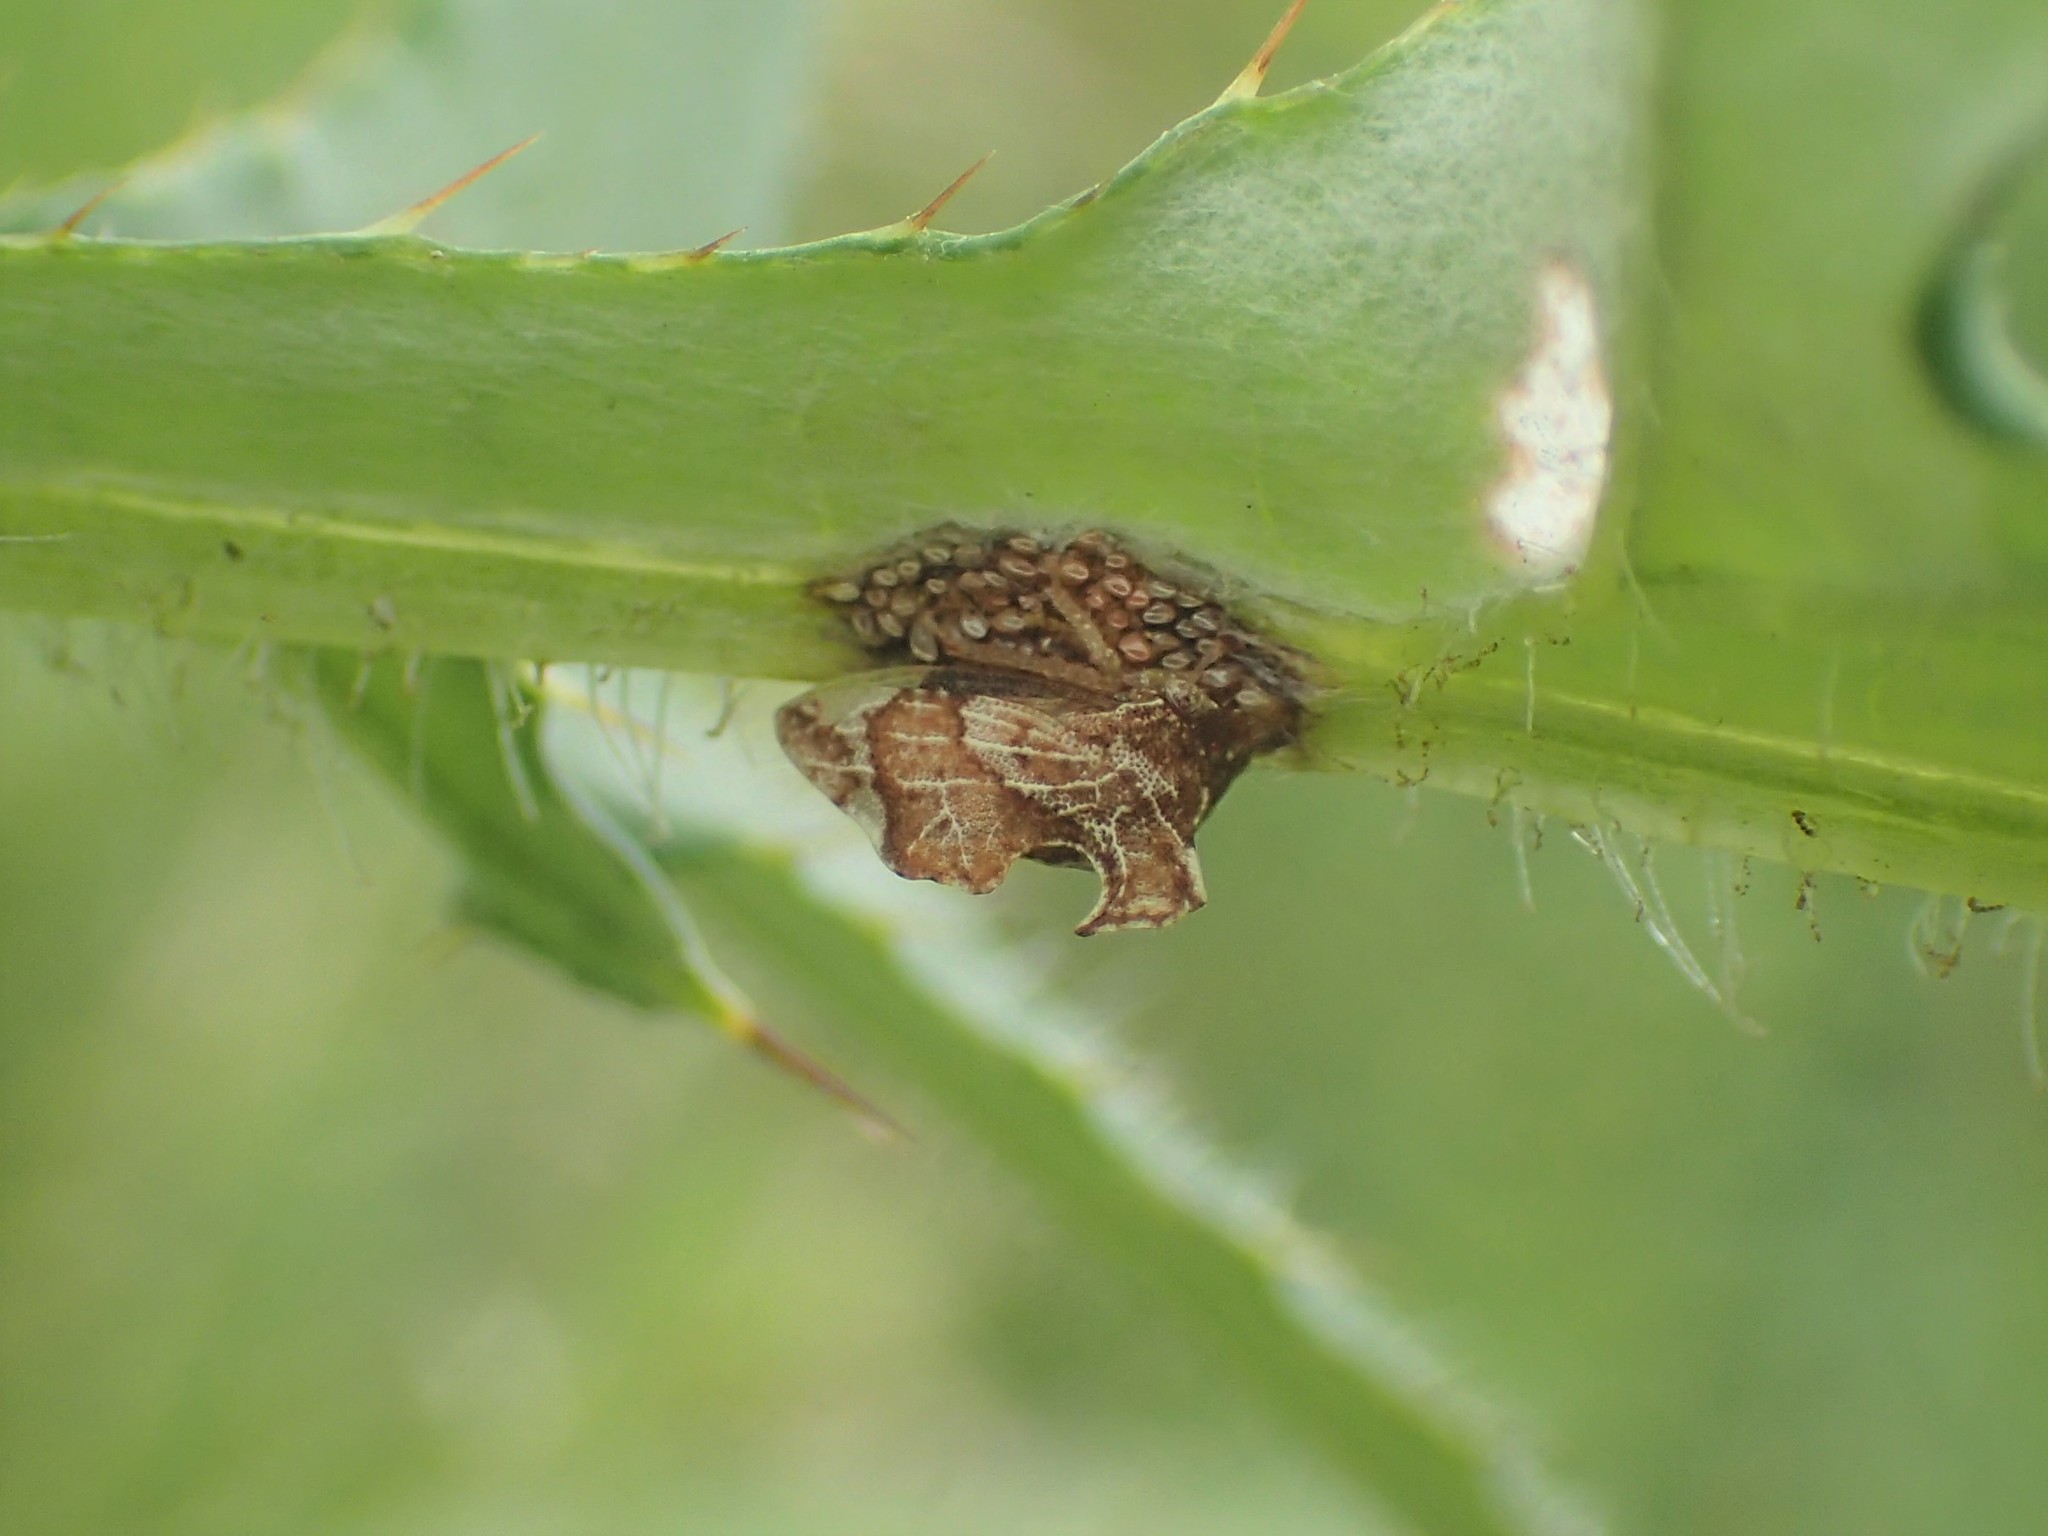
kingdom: Animalia
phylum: Arthropoda
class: Insecta
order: Hemiptera
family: Membracidae
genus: Entylia
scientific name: Entylia carinata
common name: Keeled treehopper
